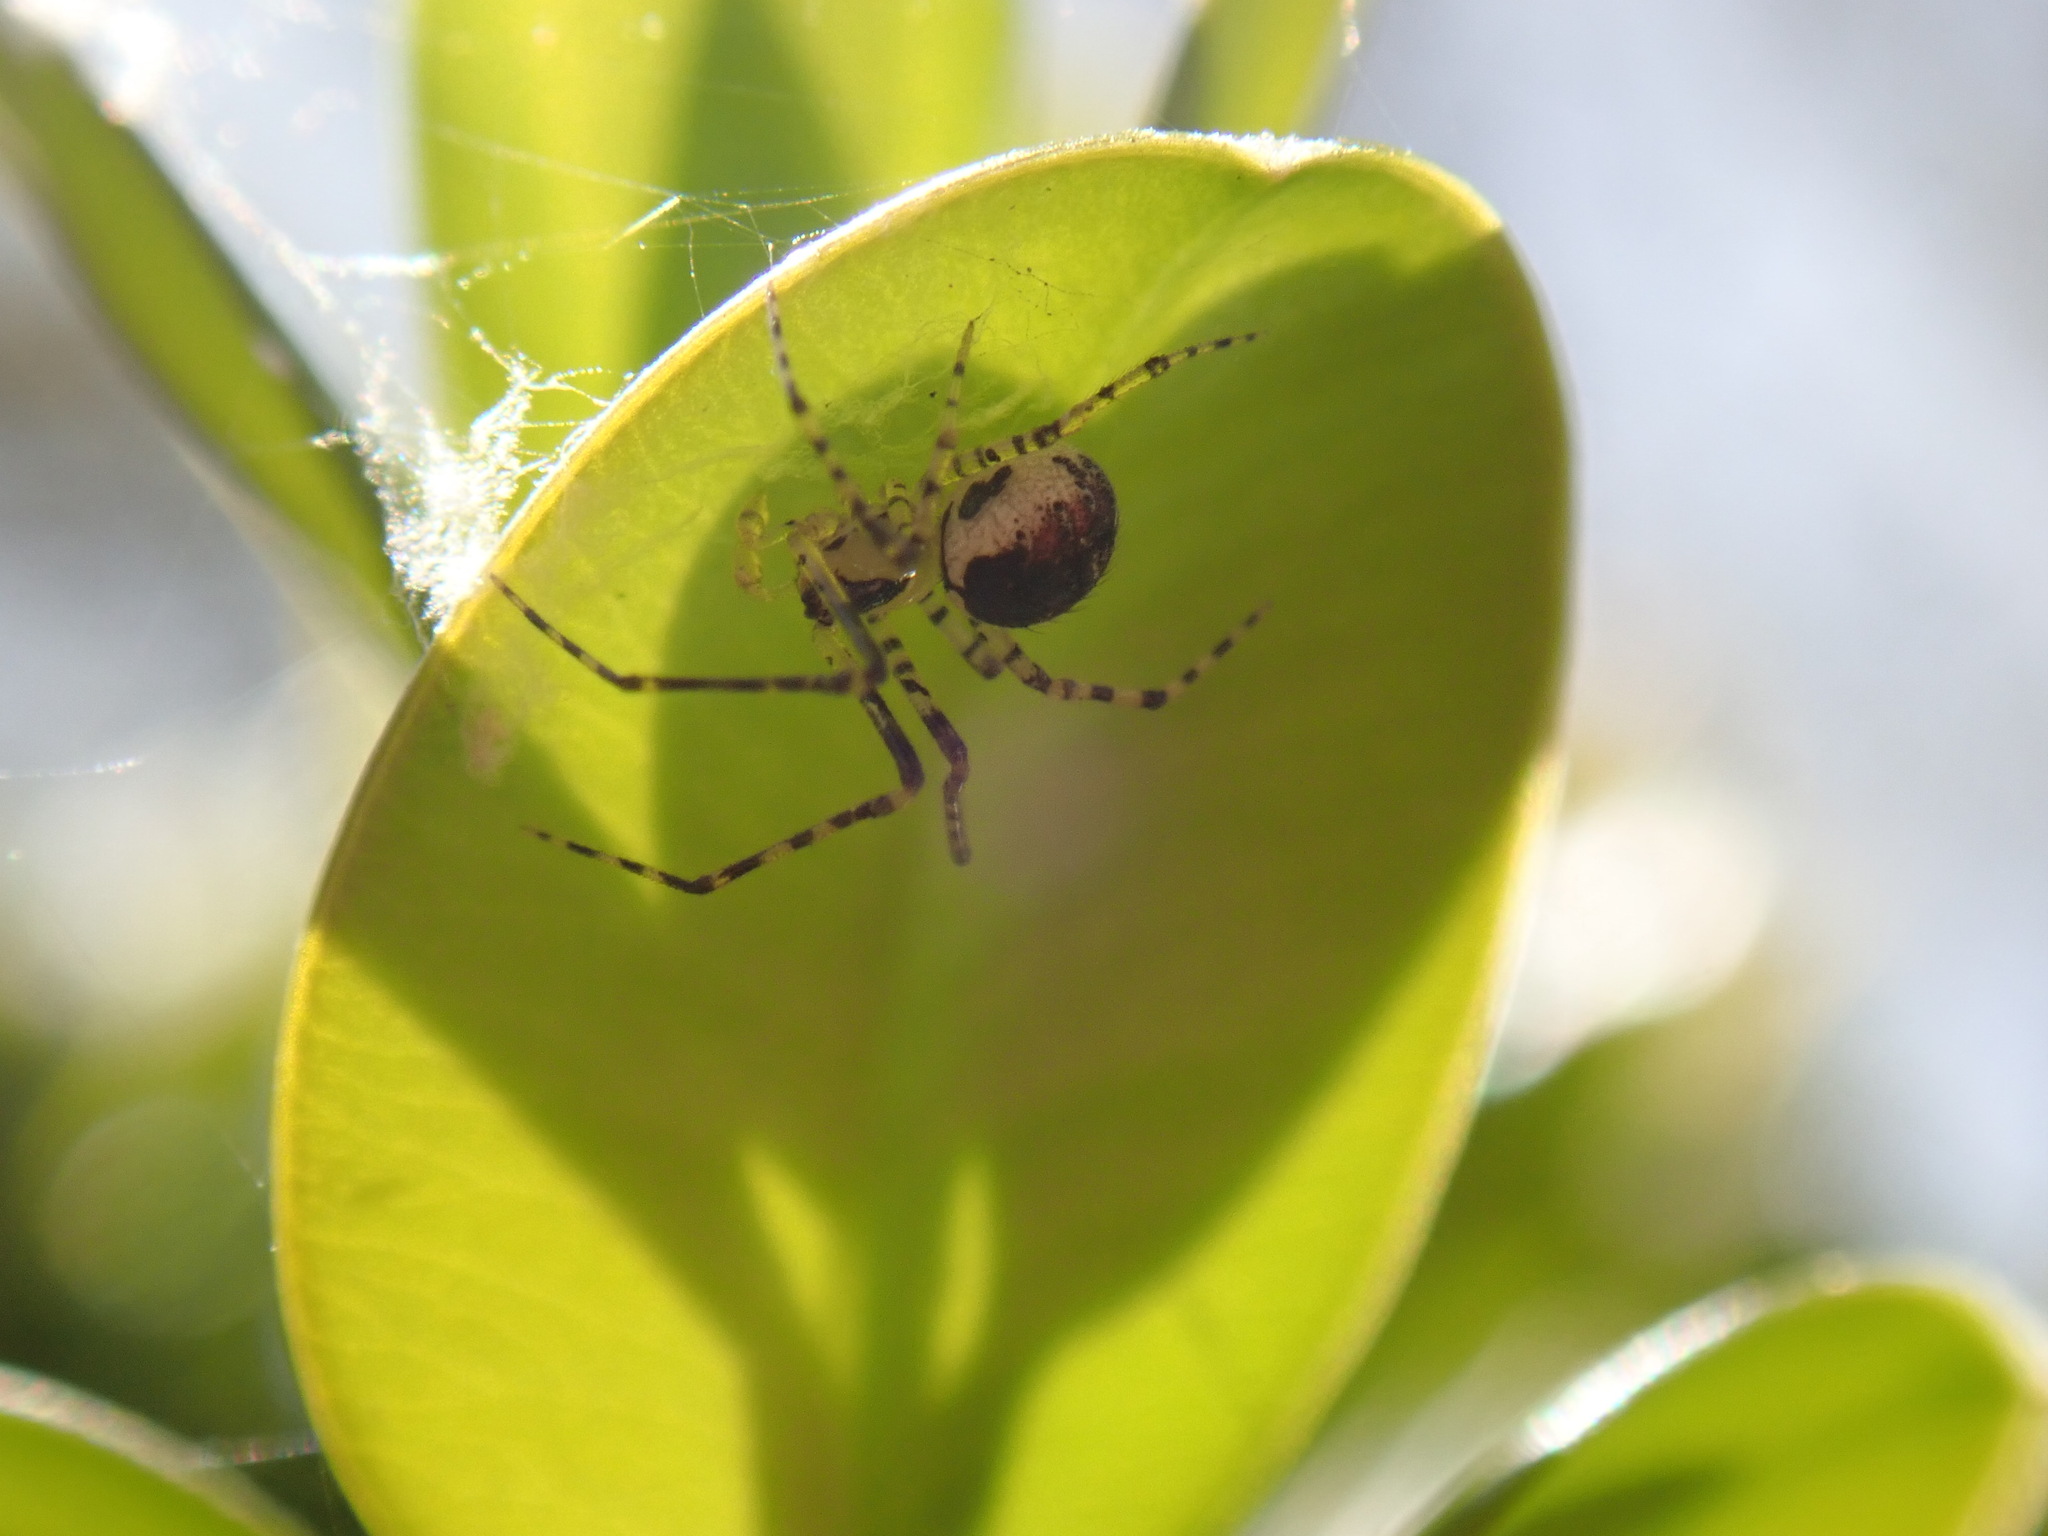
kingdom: Animalia
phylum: Arthropoda
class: Arachnida
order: Araneae
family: Theridiidae
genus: Platnickina
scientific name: Platnickina tincta
